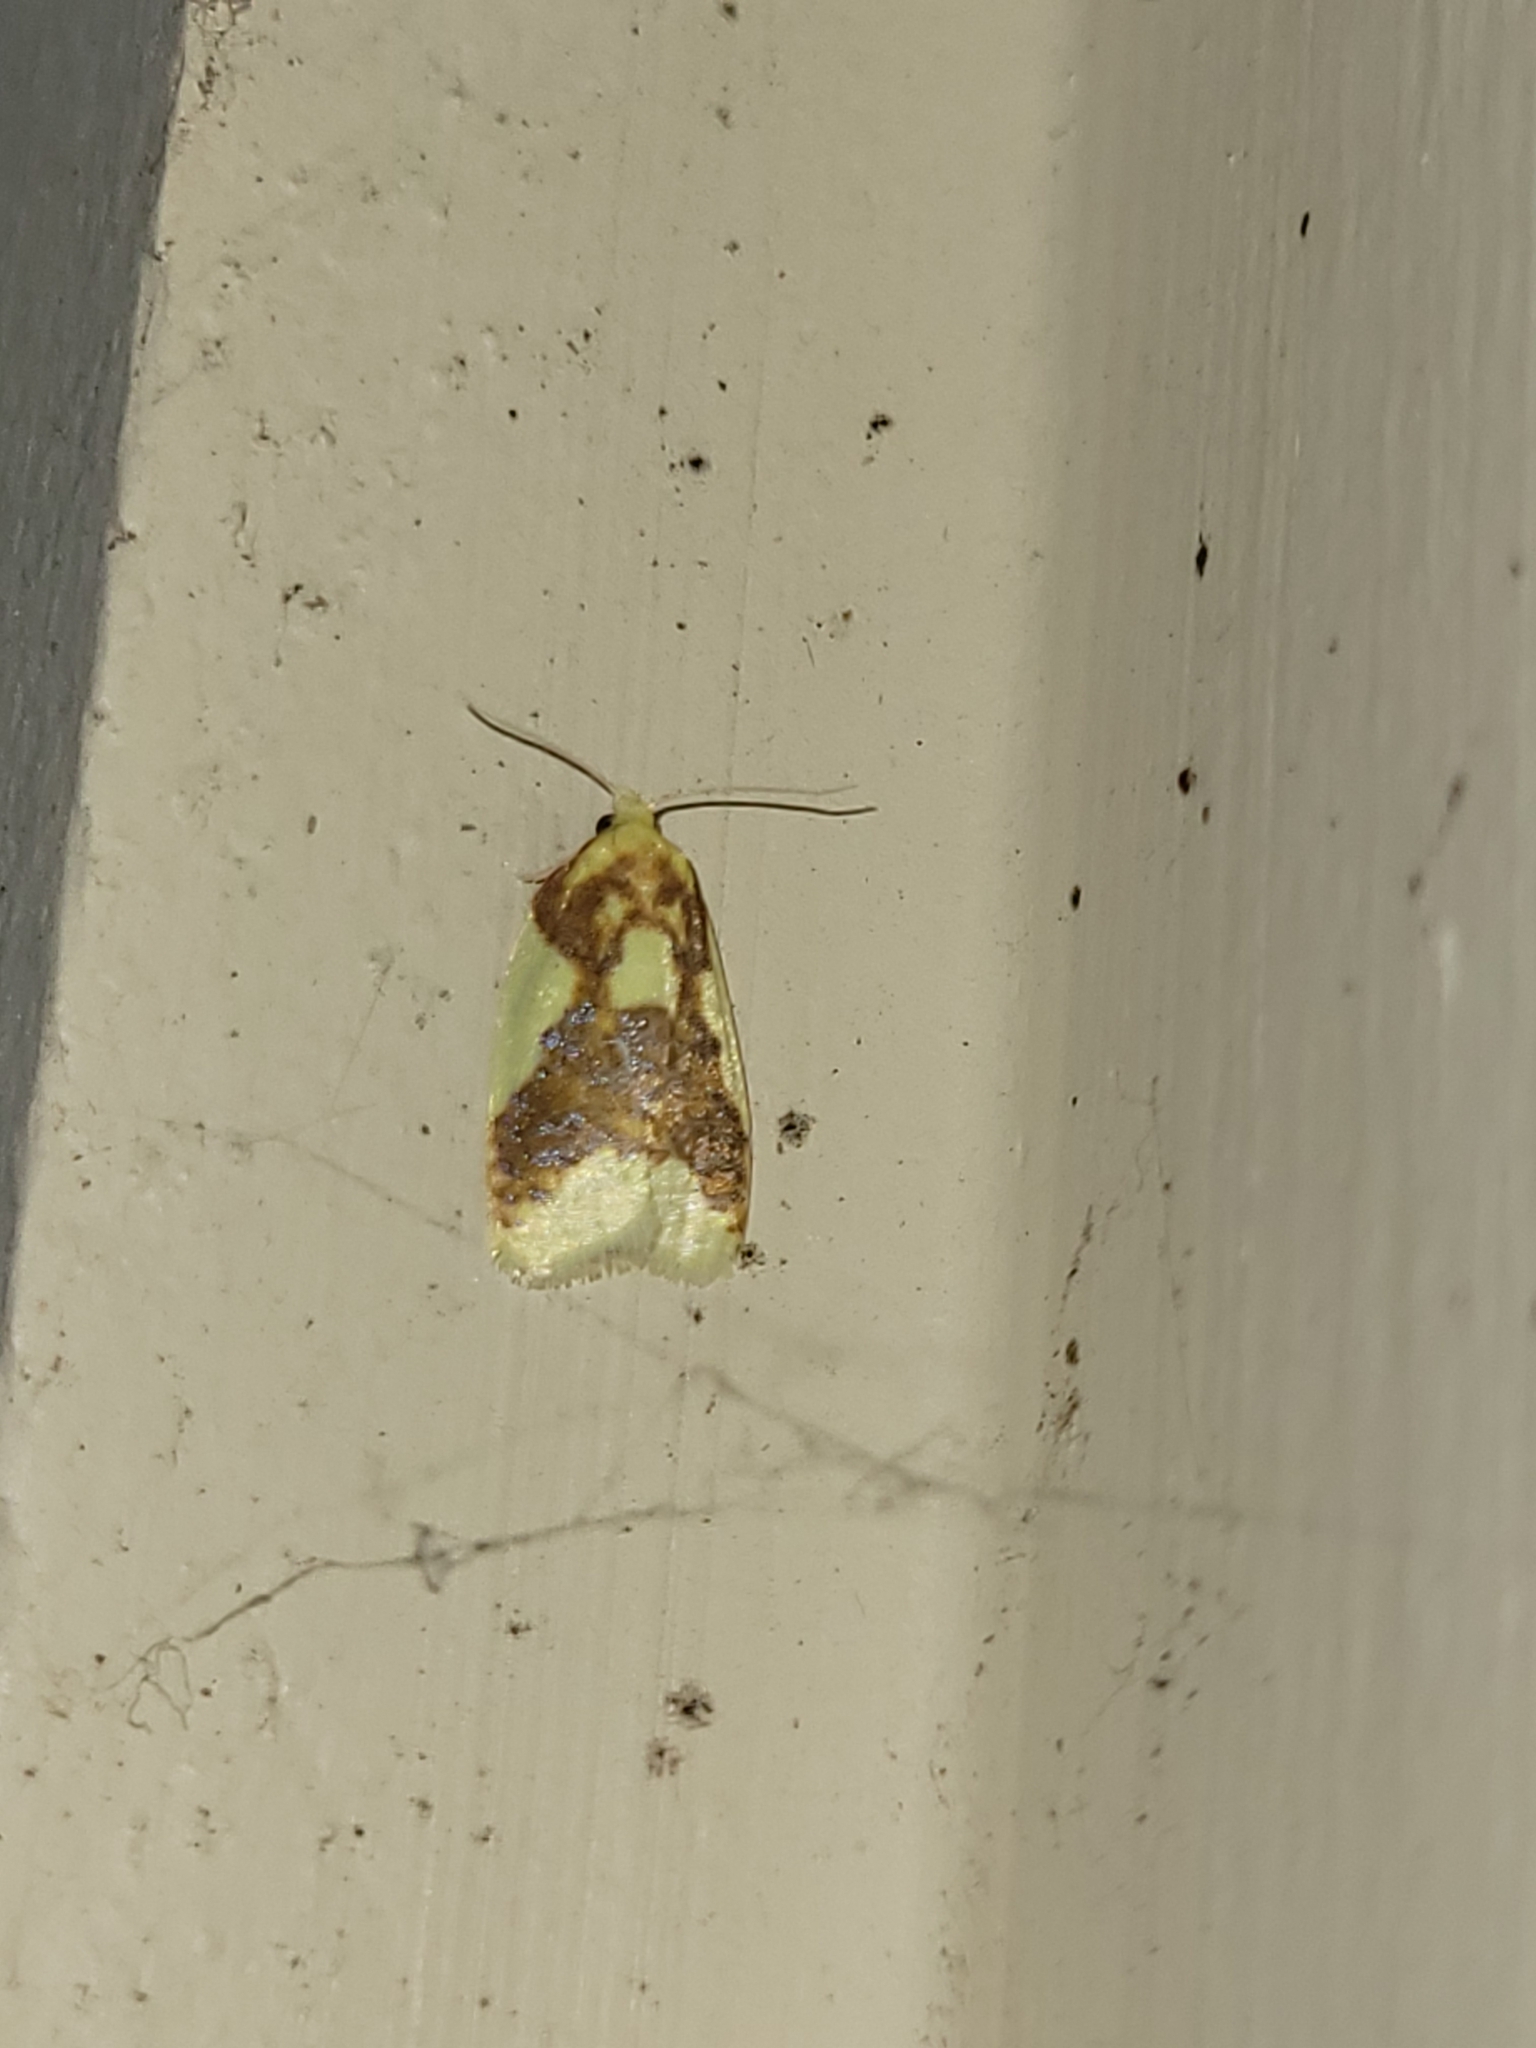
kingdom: Animalia
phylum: Arthropoda
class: Insecta
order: Lepidoptera
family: Tortricidae
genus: Sparganothis
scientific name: Sparganothis pulcherrimana
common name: Beautiful sparganothis
